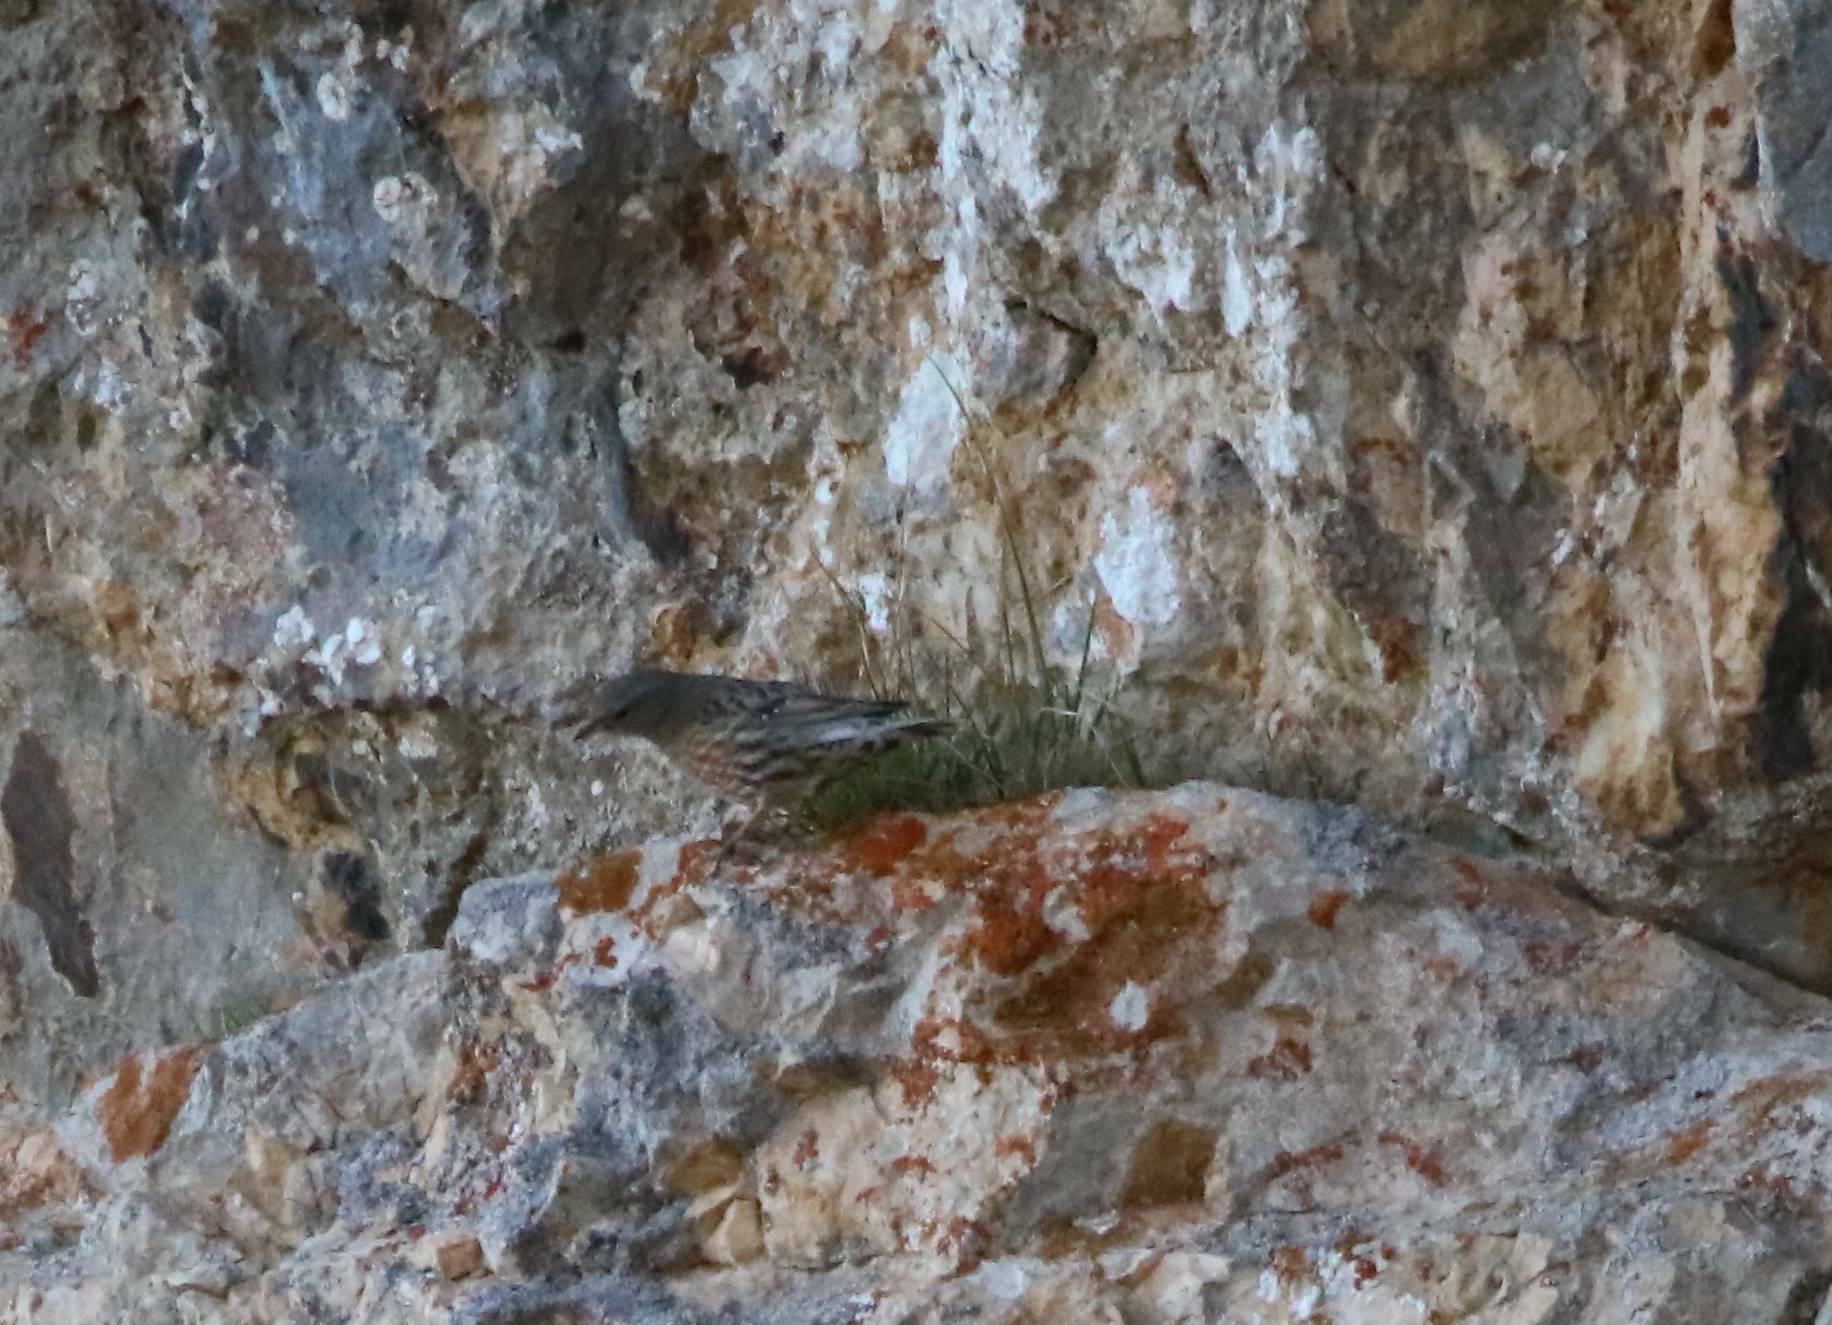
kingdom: Animalia
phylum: Chordata
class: Aves
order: Passeriformes
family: Prunellidae
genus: Prunella
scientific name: Prunella collaris
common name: Alpine accentor
